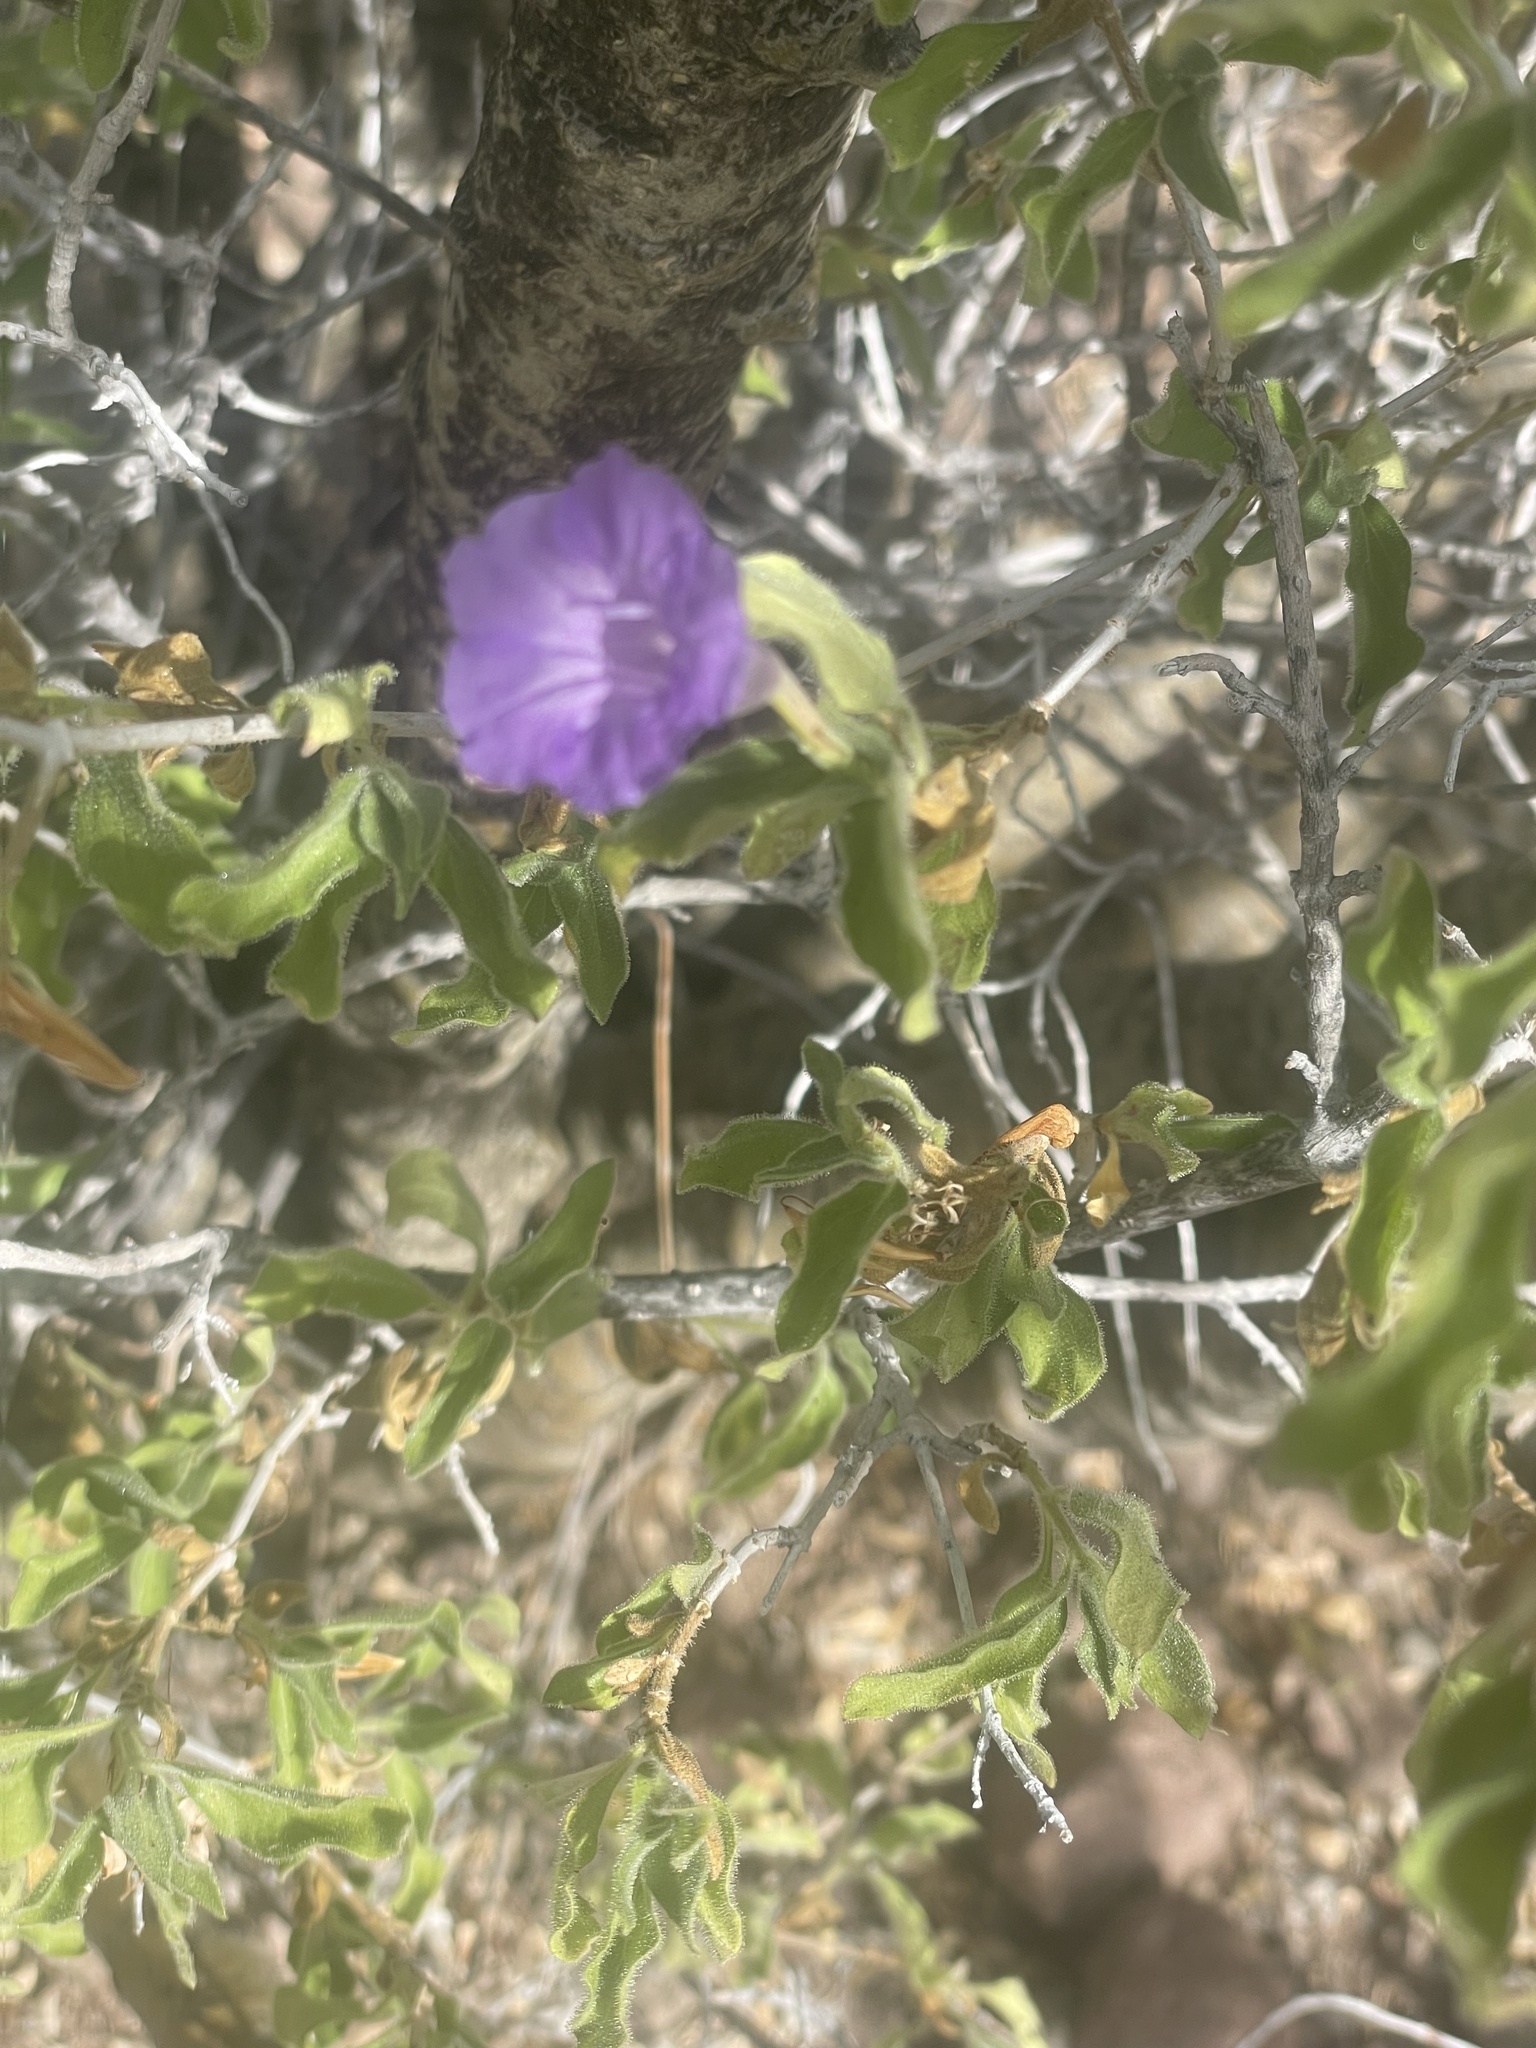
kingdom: Plantae
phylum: Tracheophyta
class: Magnoliopsida
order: Lamiales
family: Acanthaceae
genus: Ruellia
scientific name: Ruellia californica
